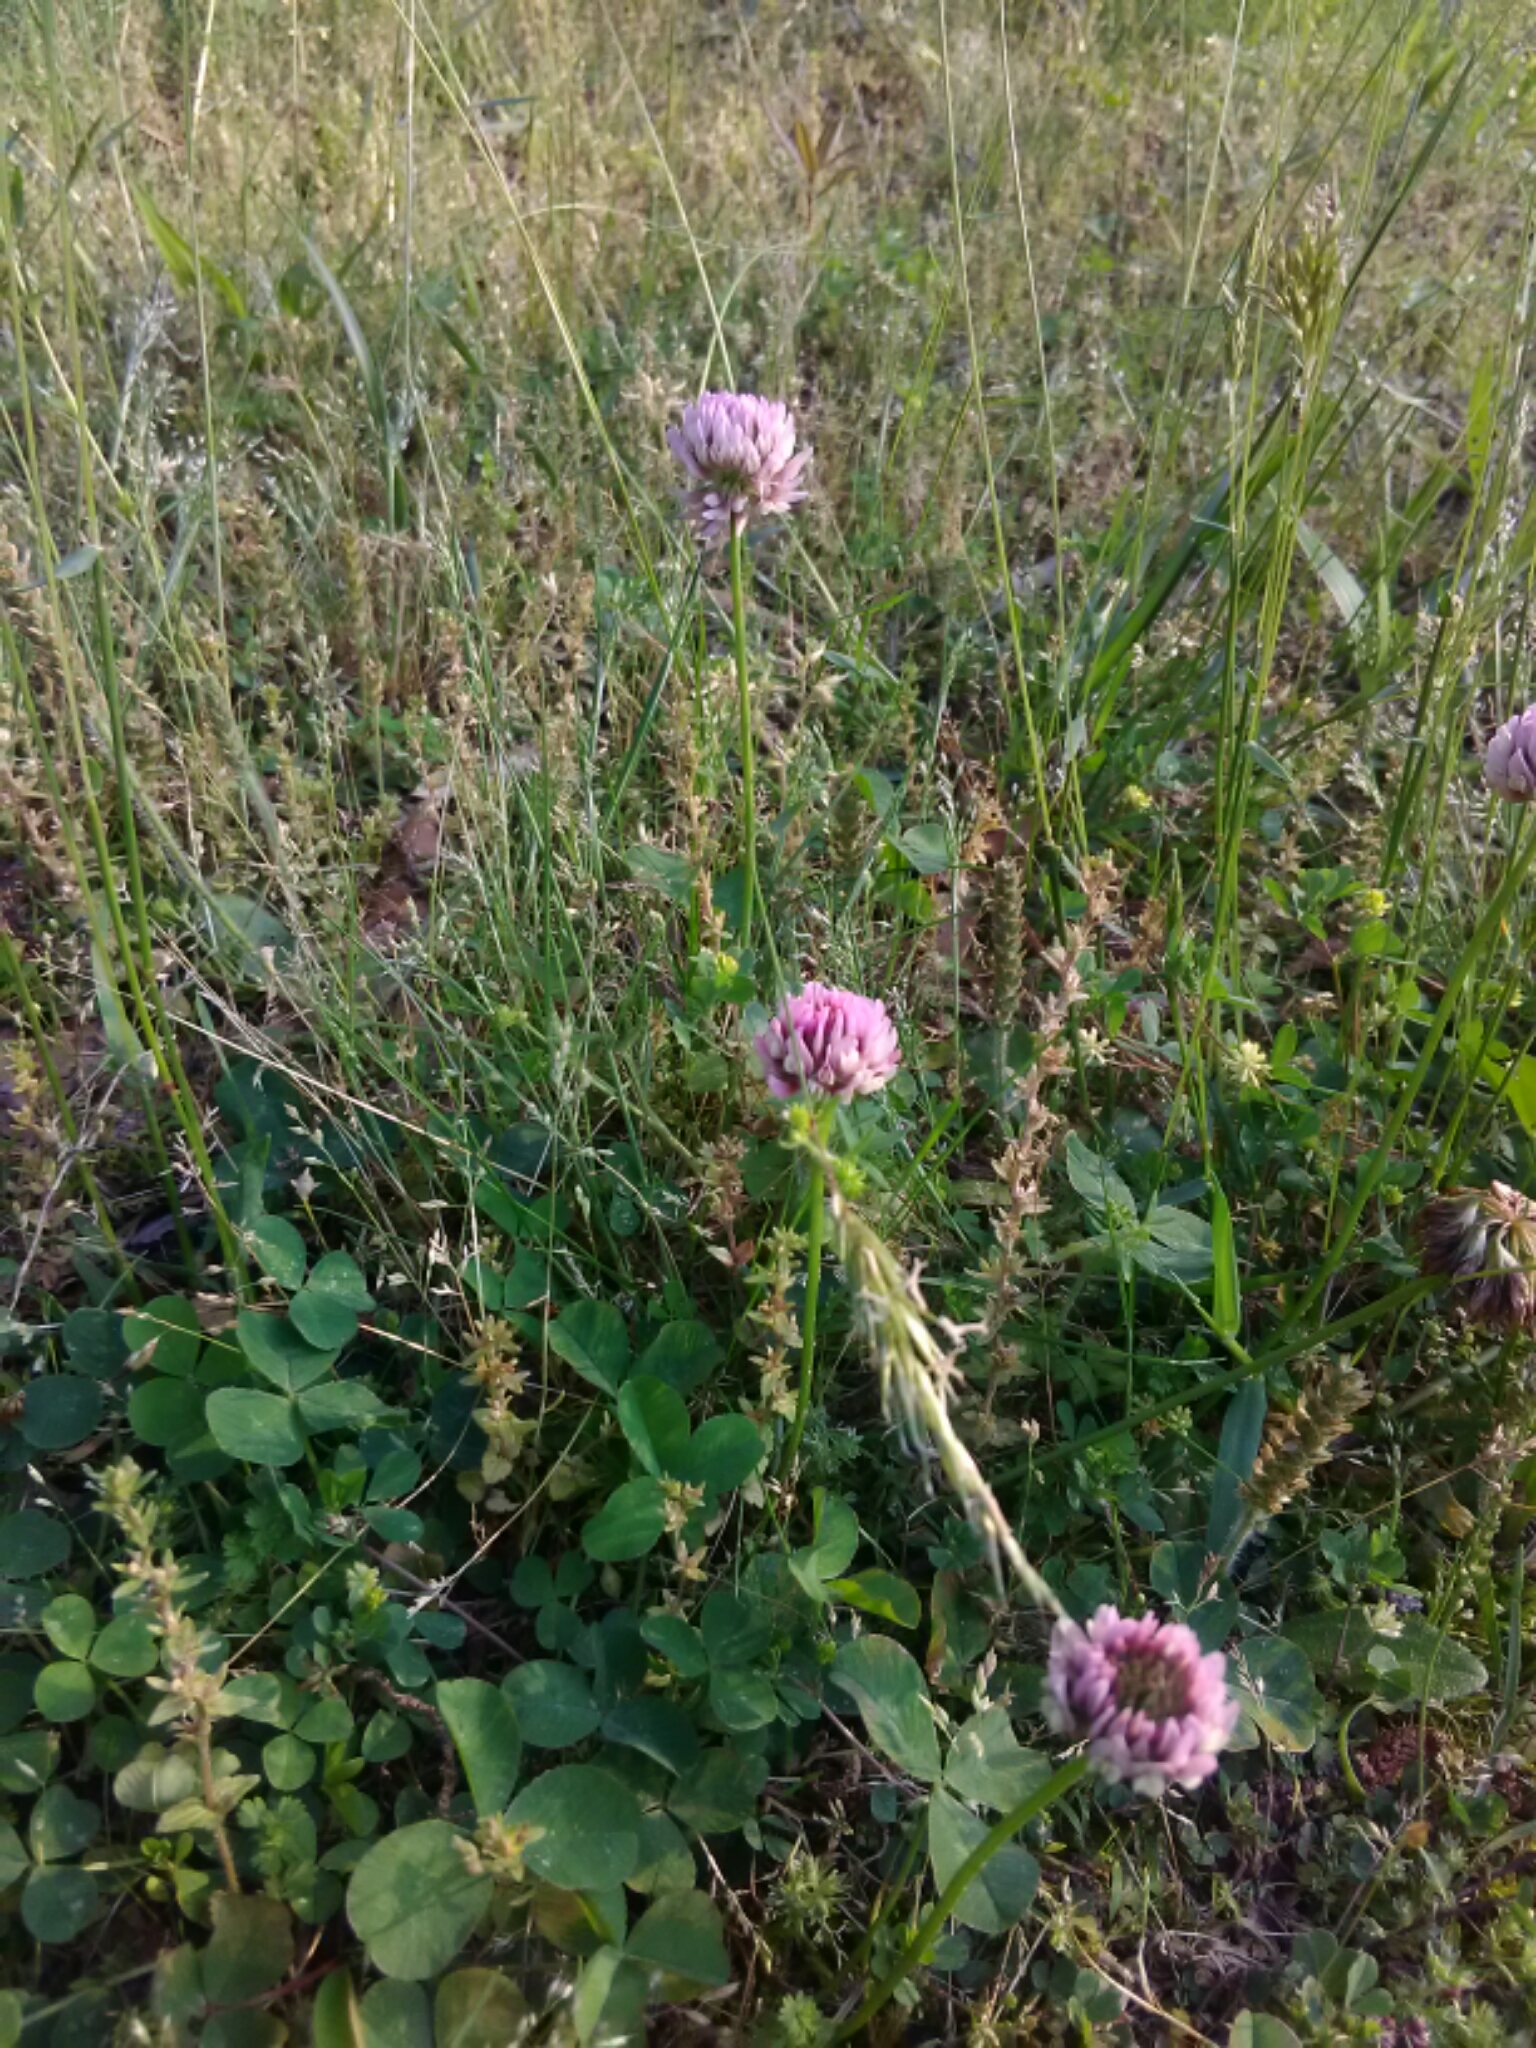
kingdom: Plantae
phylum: Tracheophyta
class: Magnoliopsida
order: Fabales
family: Fabaceae
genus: Trifolium
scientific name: Trifolium repens
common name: White clover
